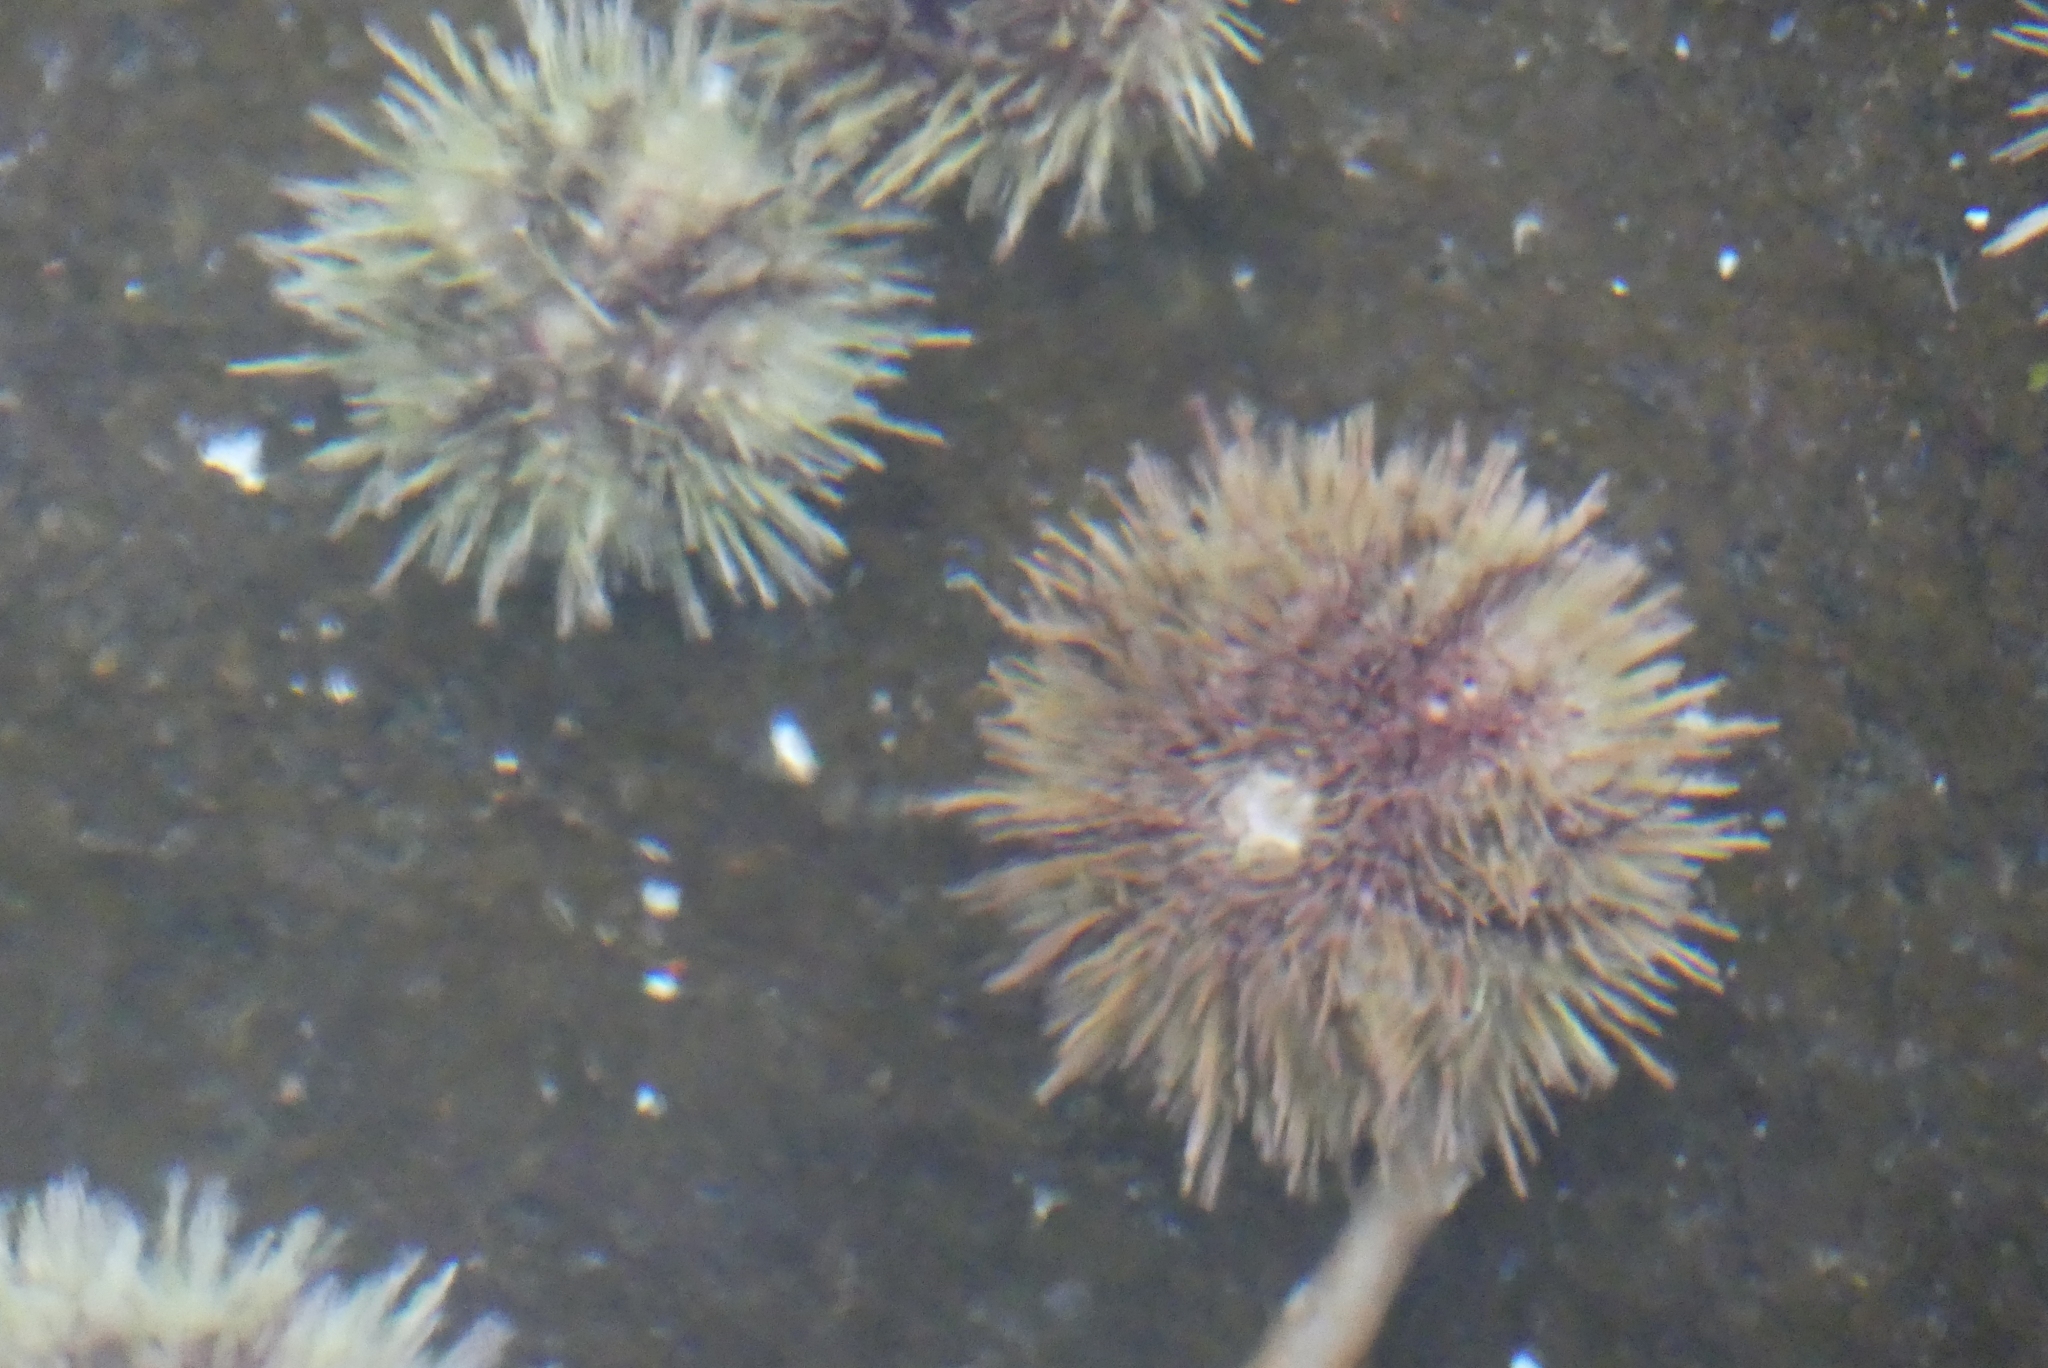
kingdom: Animalia
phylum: Echinodermata
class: Echinoidea
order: Camarodonta
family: Strongylocentrotidae
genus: Strongylocentrotus
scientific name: Strongylocentrotus droebachiensis
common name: Northern sea urchin
